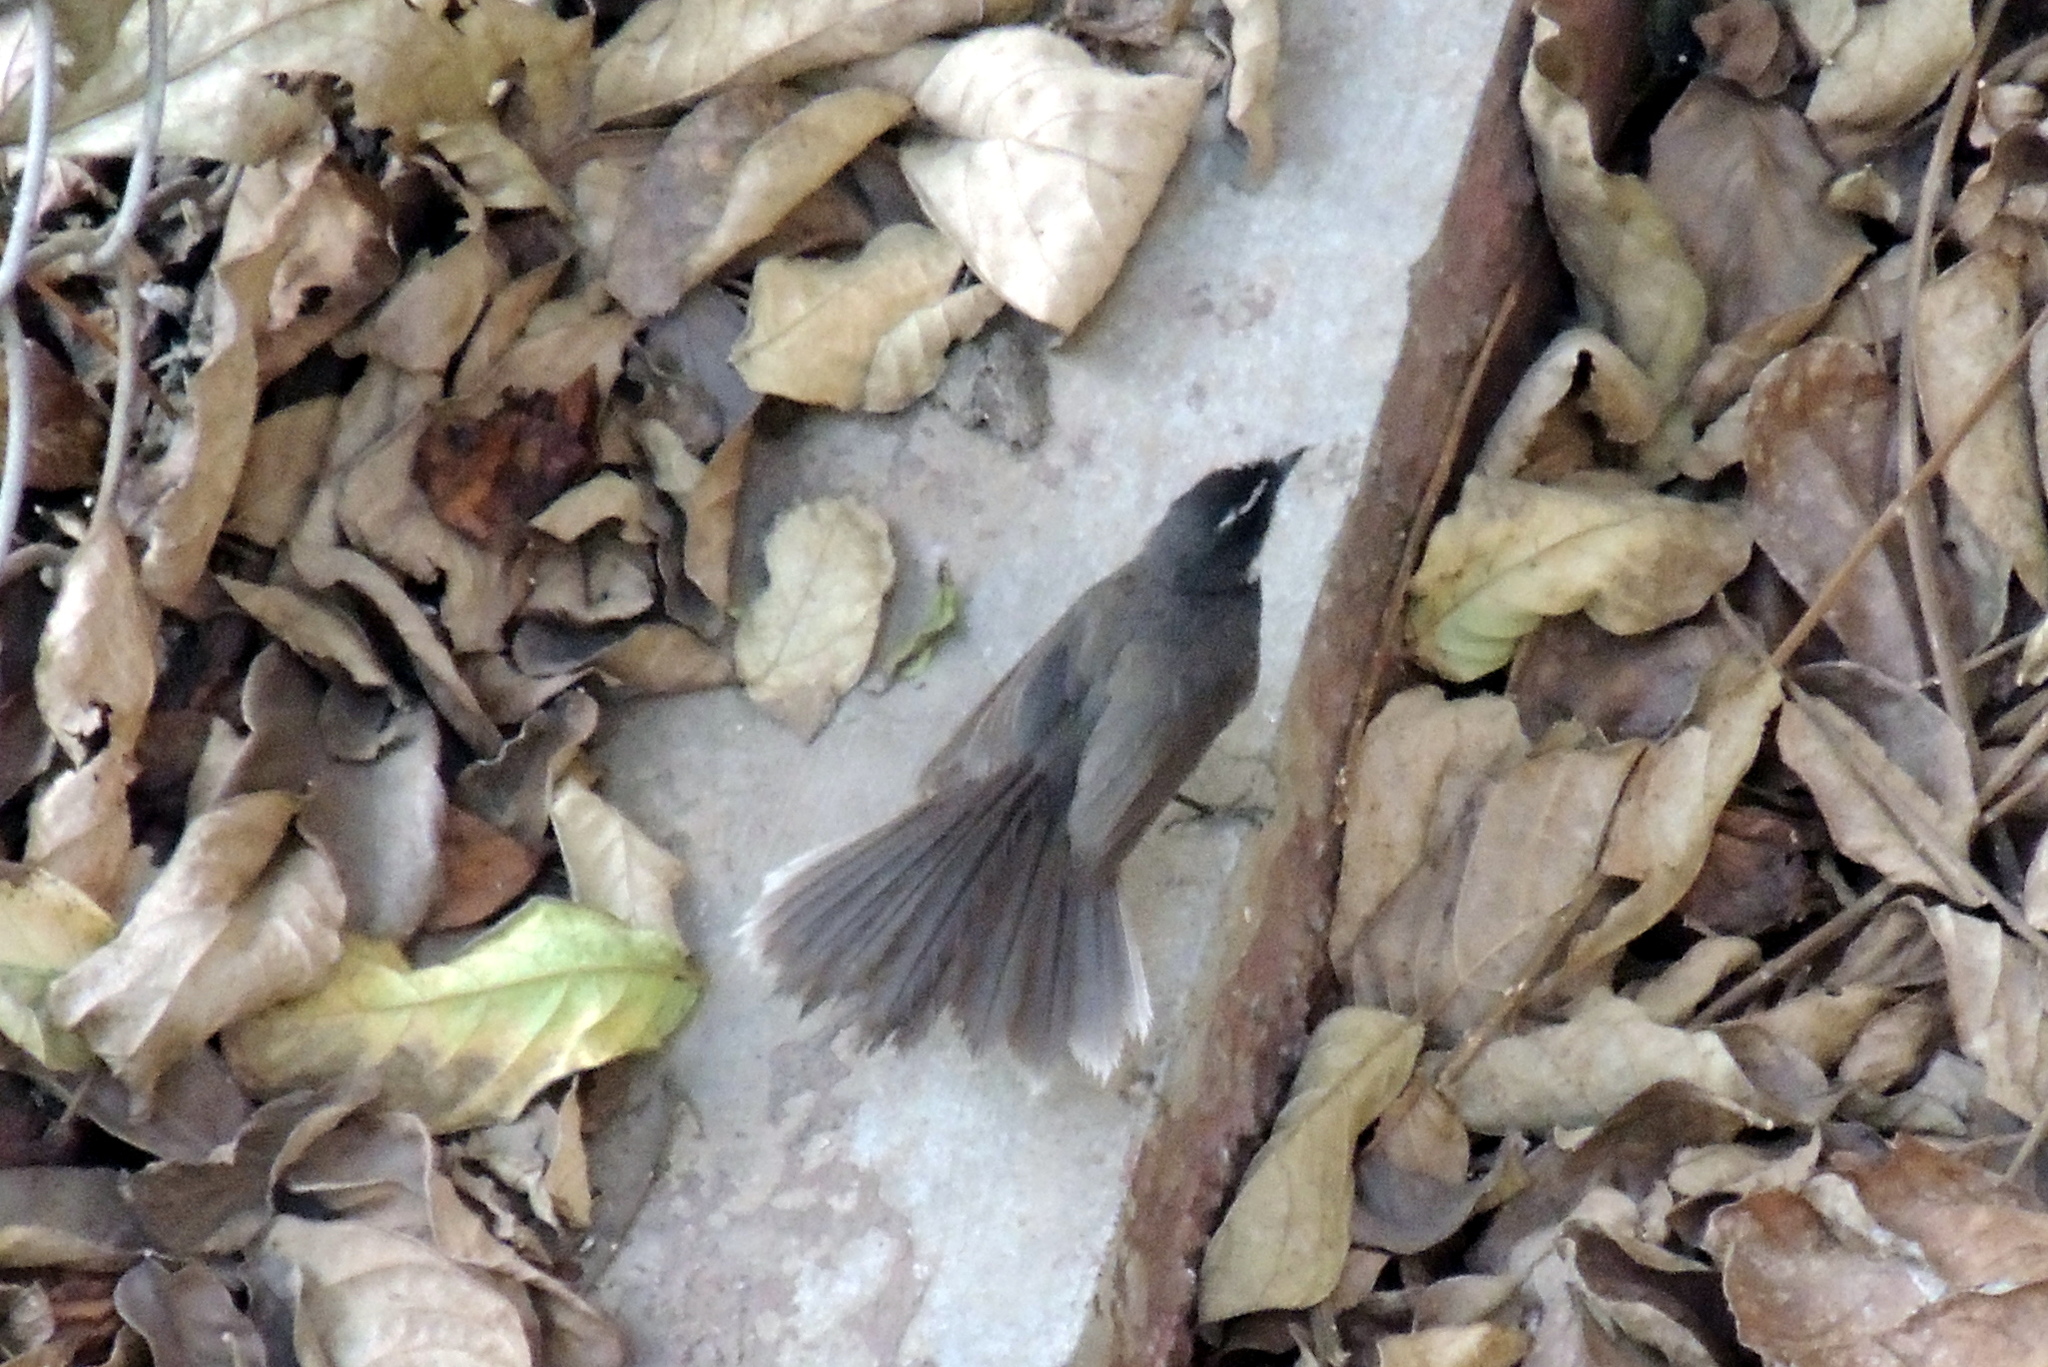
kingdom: Animalia
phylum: Chordata
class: Aves
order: Passeriformes
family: Rhipiduridae
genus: Rhipidura
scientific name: Rhipidura albogularis
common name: White-spotted fantail
